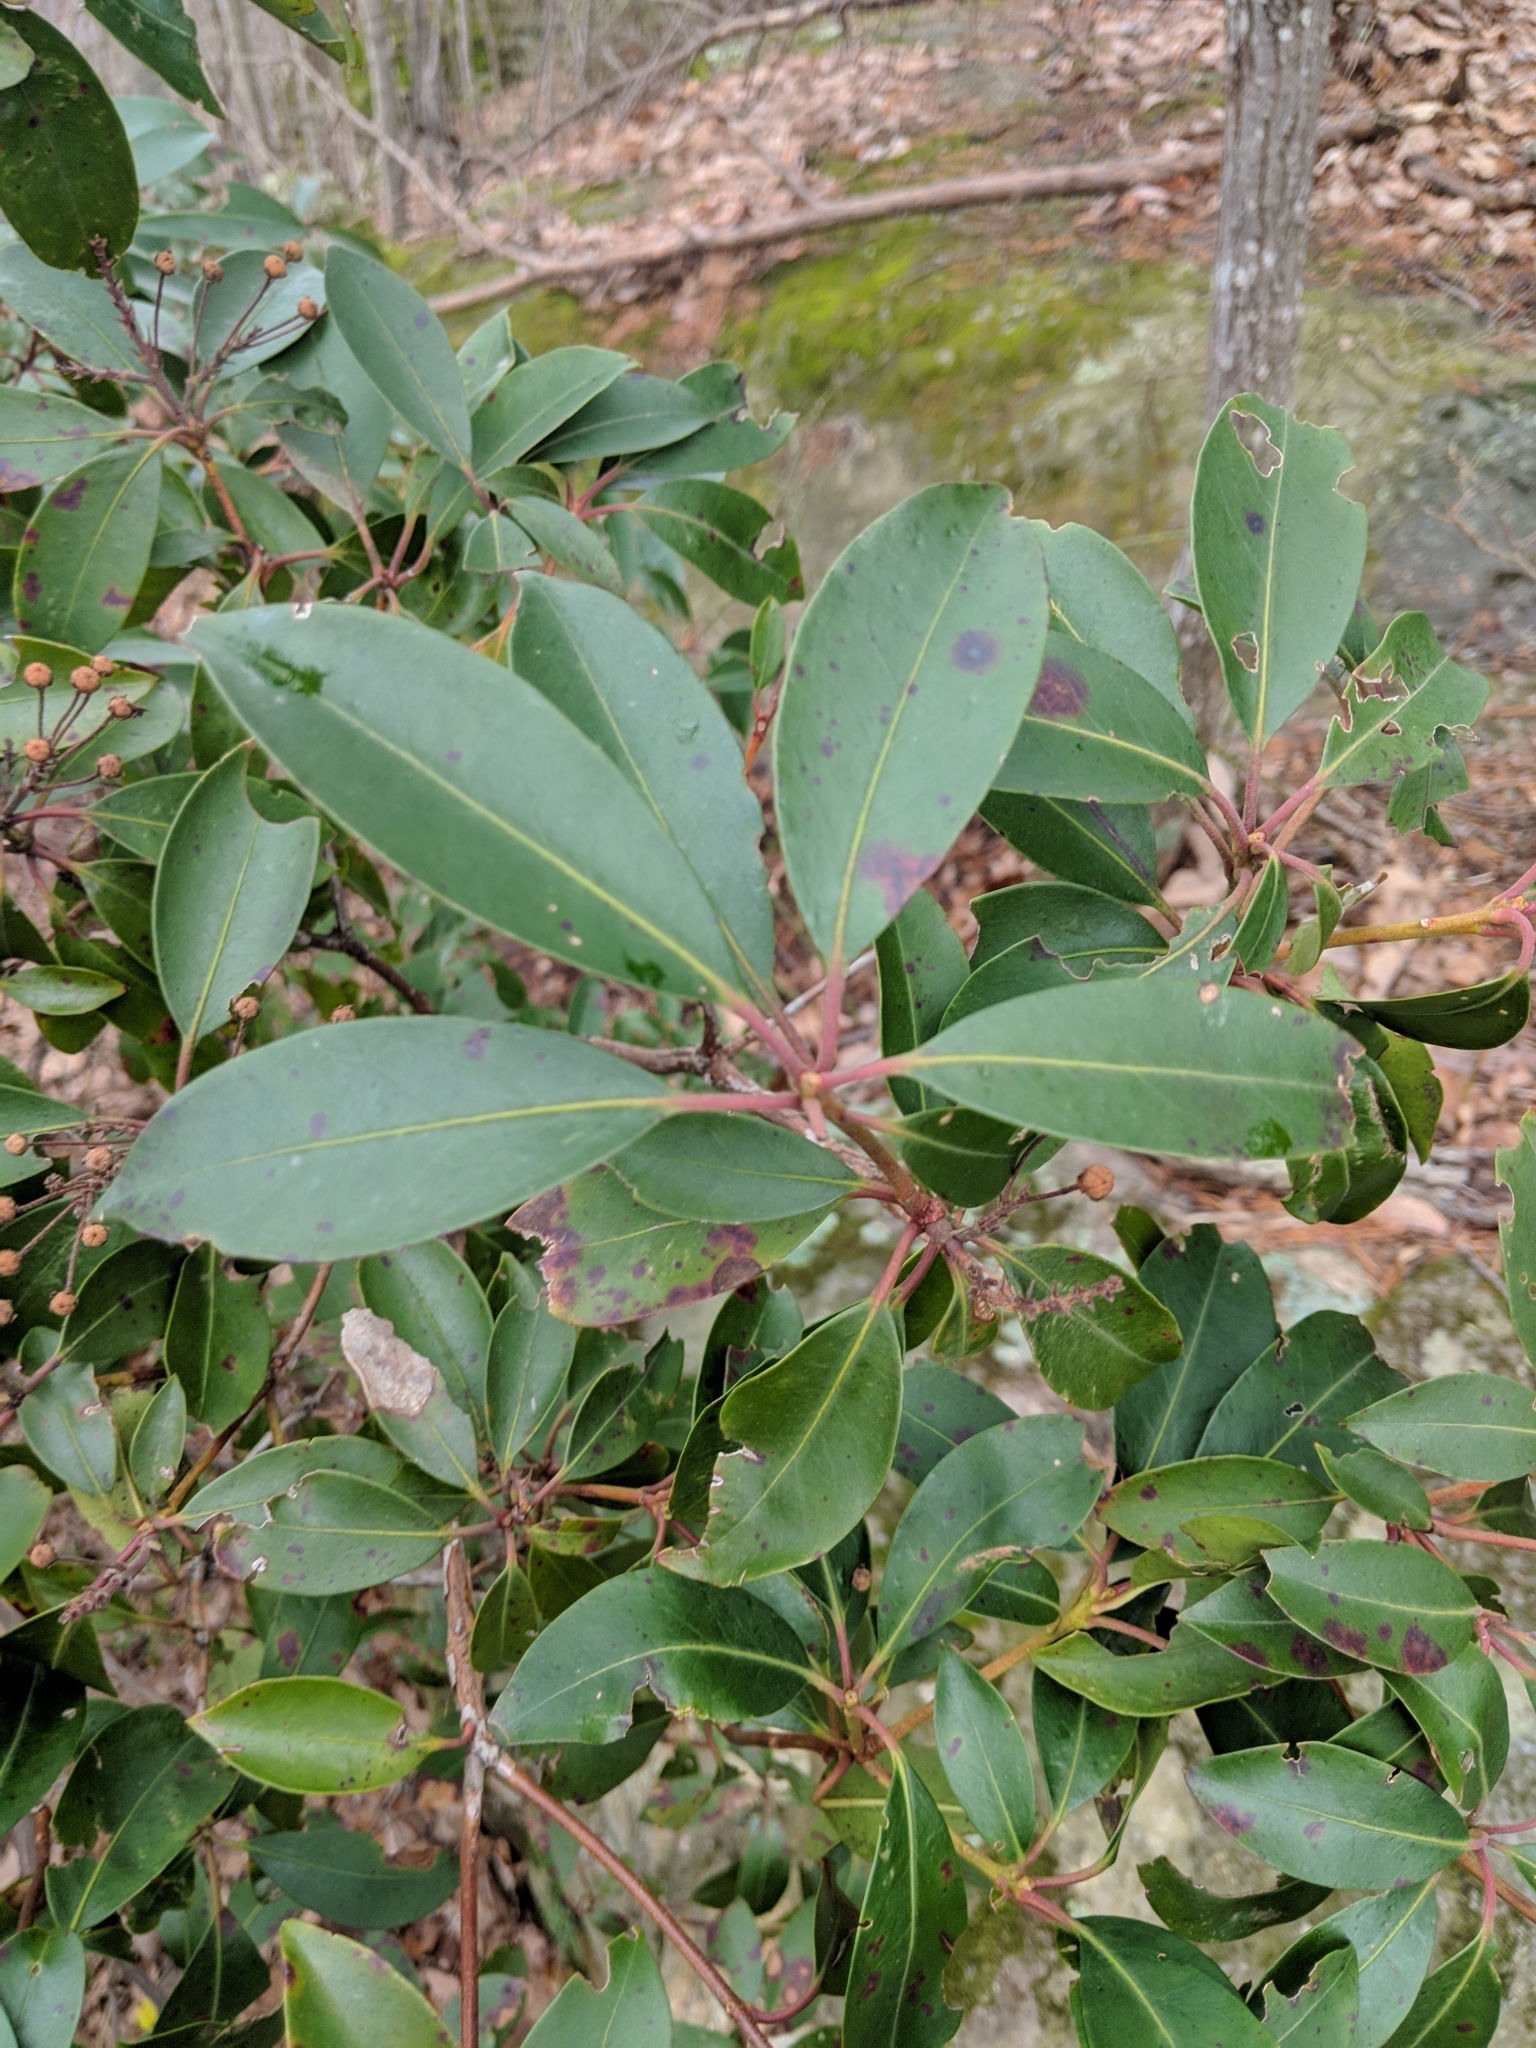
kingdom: Plantae
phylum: Tracheophyta
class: Magnoliopsida
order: Ericales
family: Ericaceae
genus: Kalmia
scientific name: Kalmia latifolia
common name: Mountain-laurel
